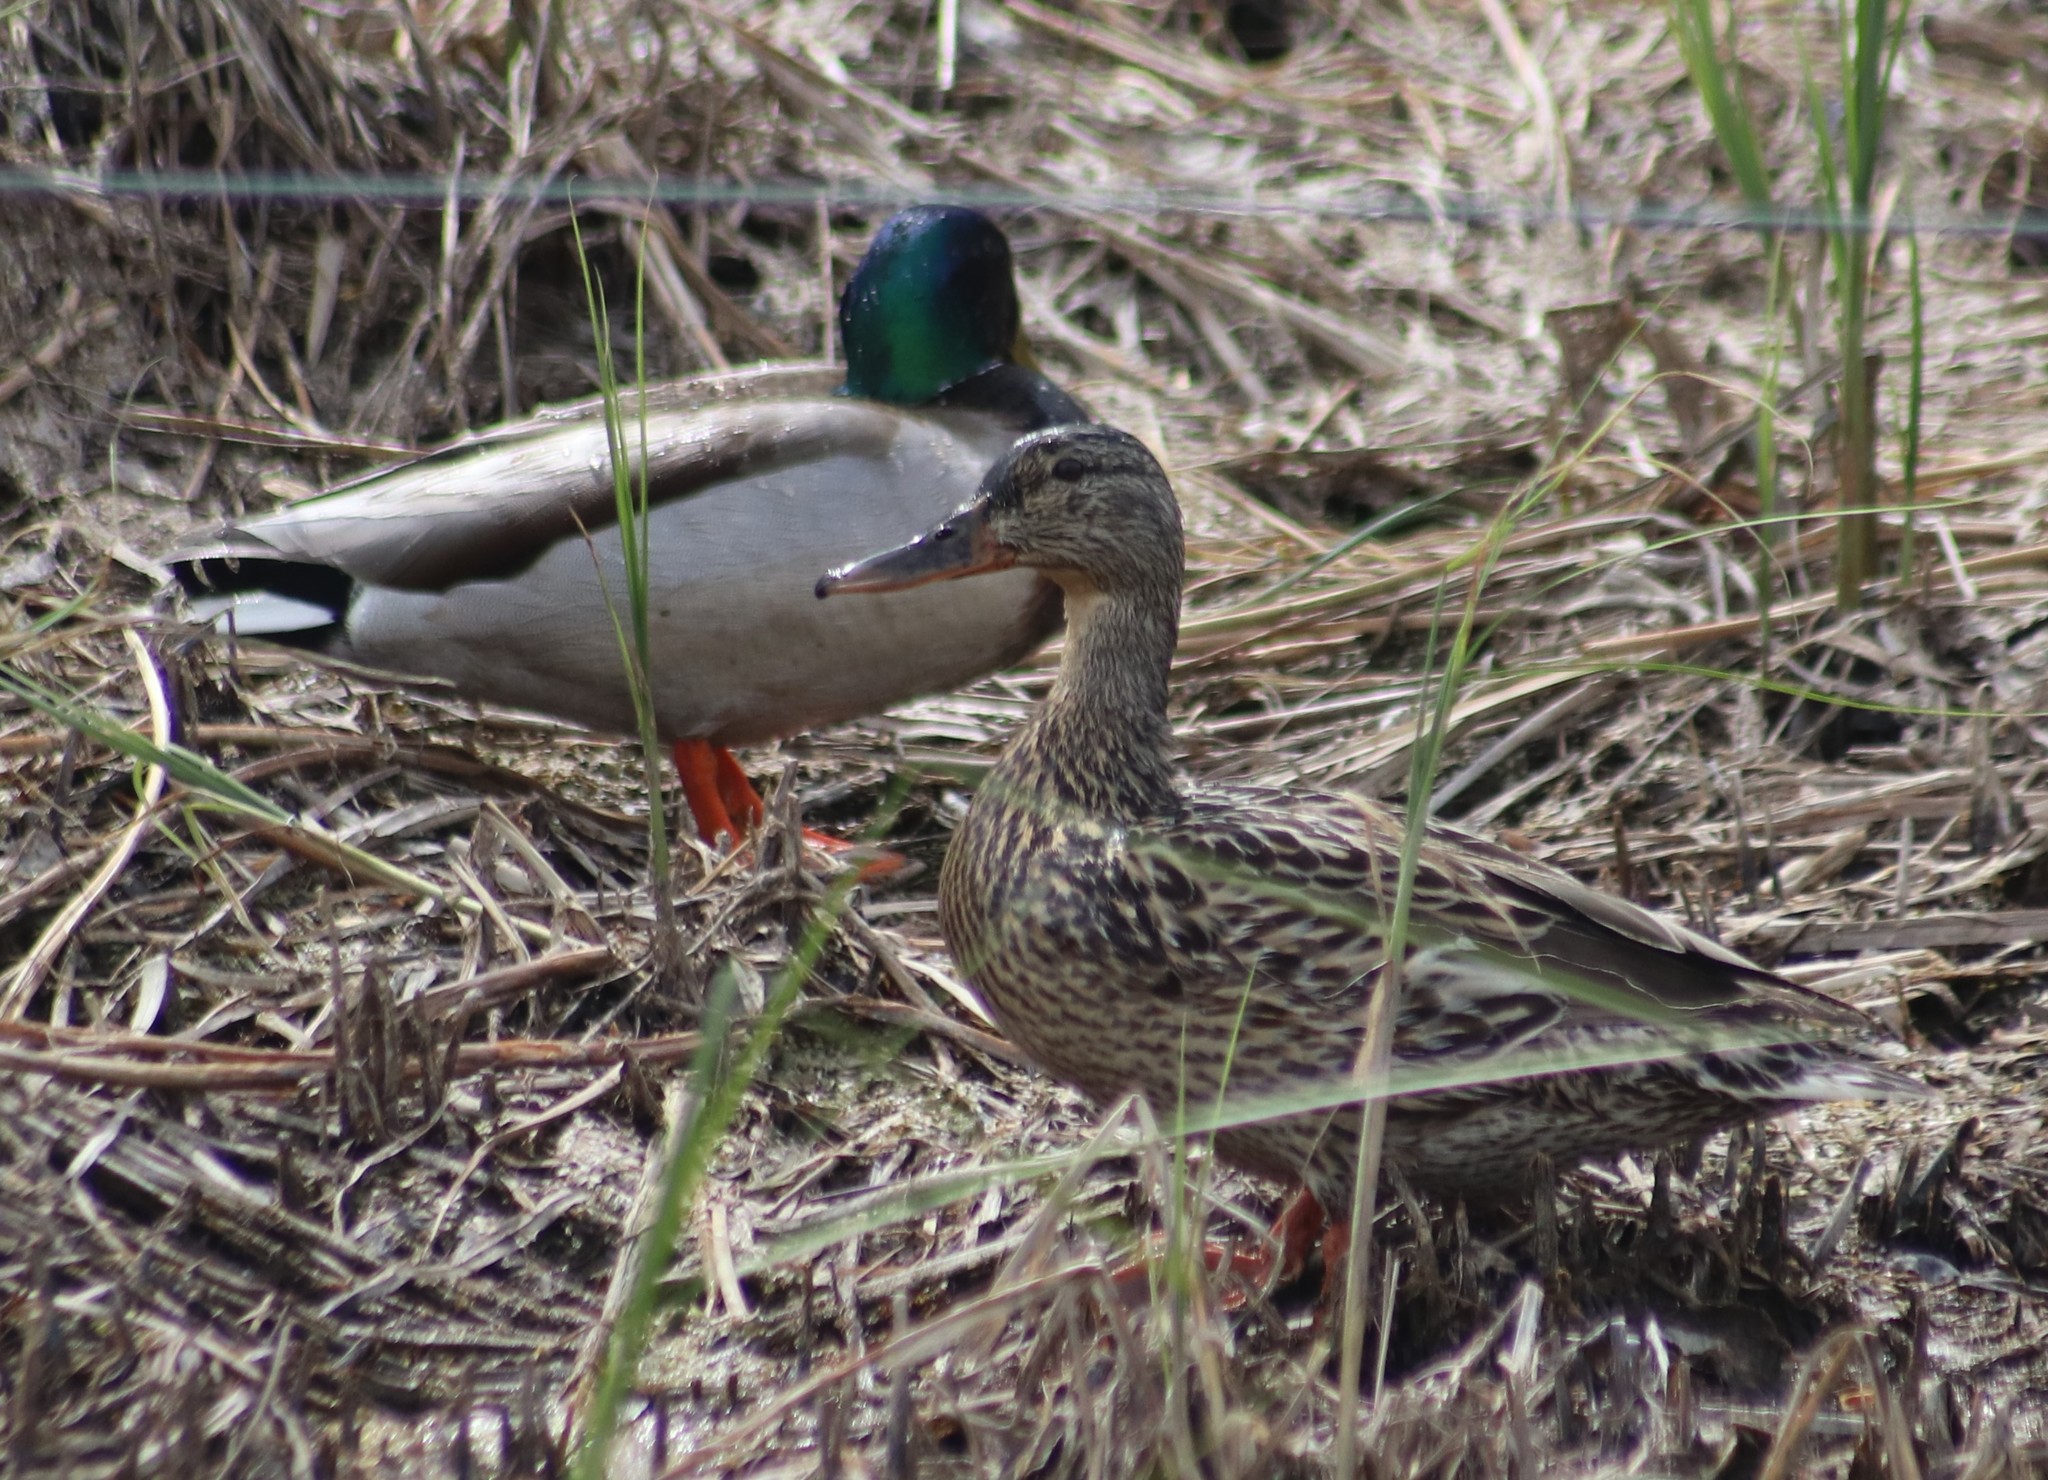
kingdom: Animalia
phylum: Chordata
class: Aves
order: Anseriformes
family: Anatidae
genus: Anas
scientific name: Anas platyrhynchos
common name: Mallard
